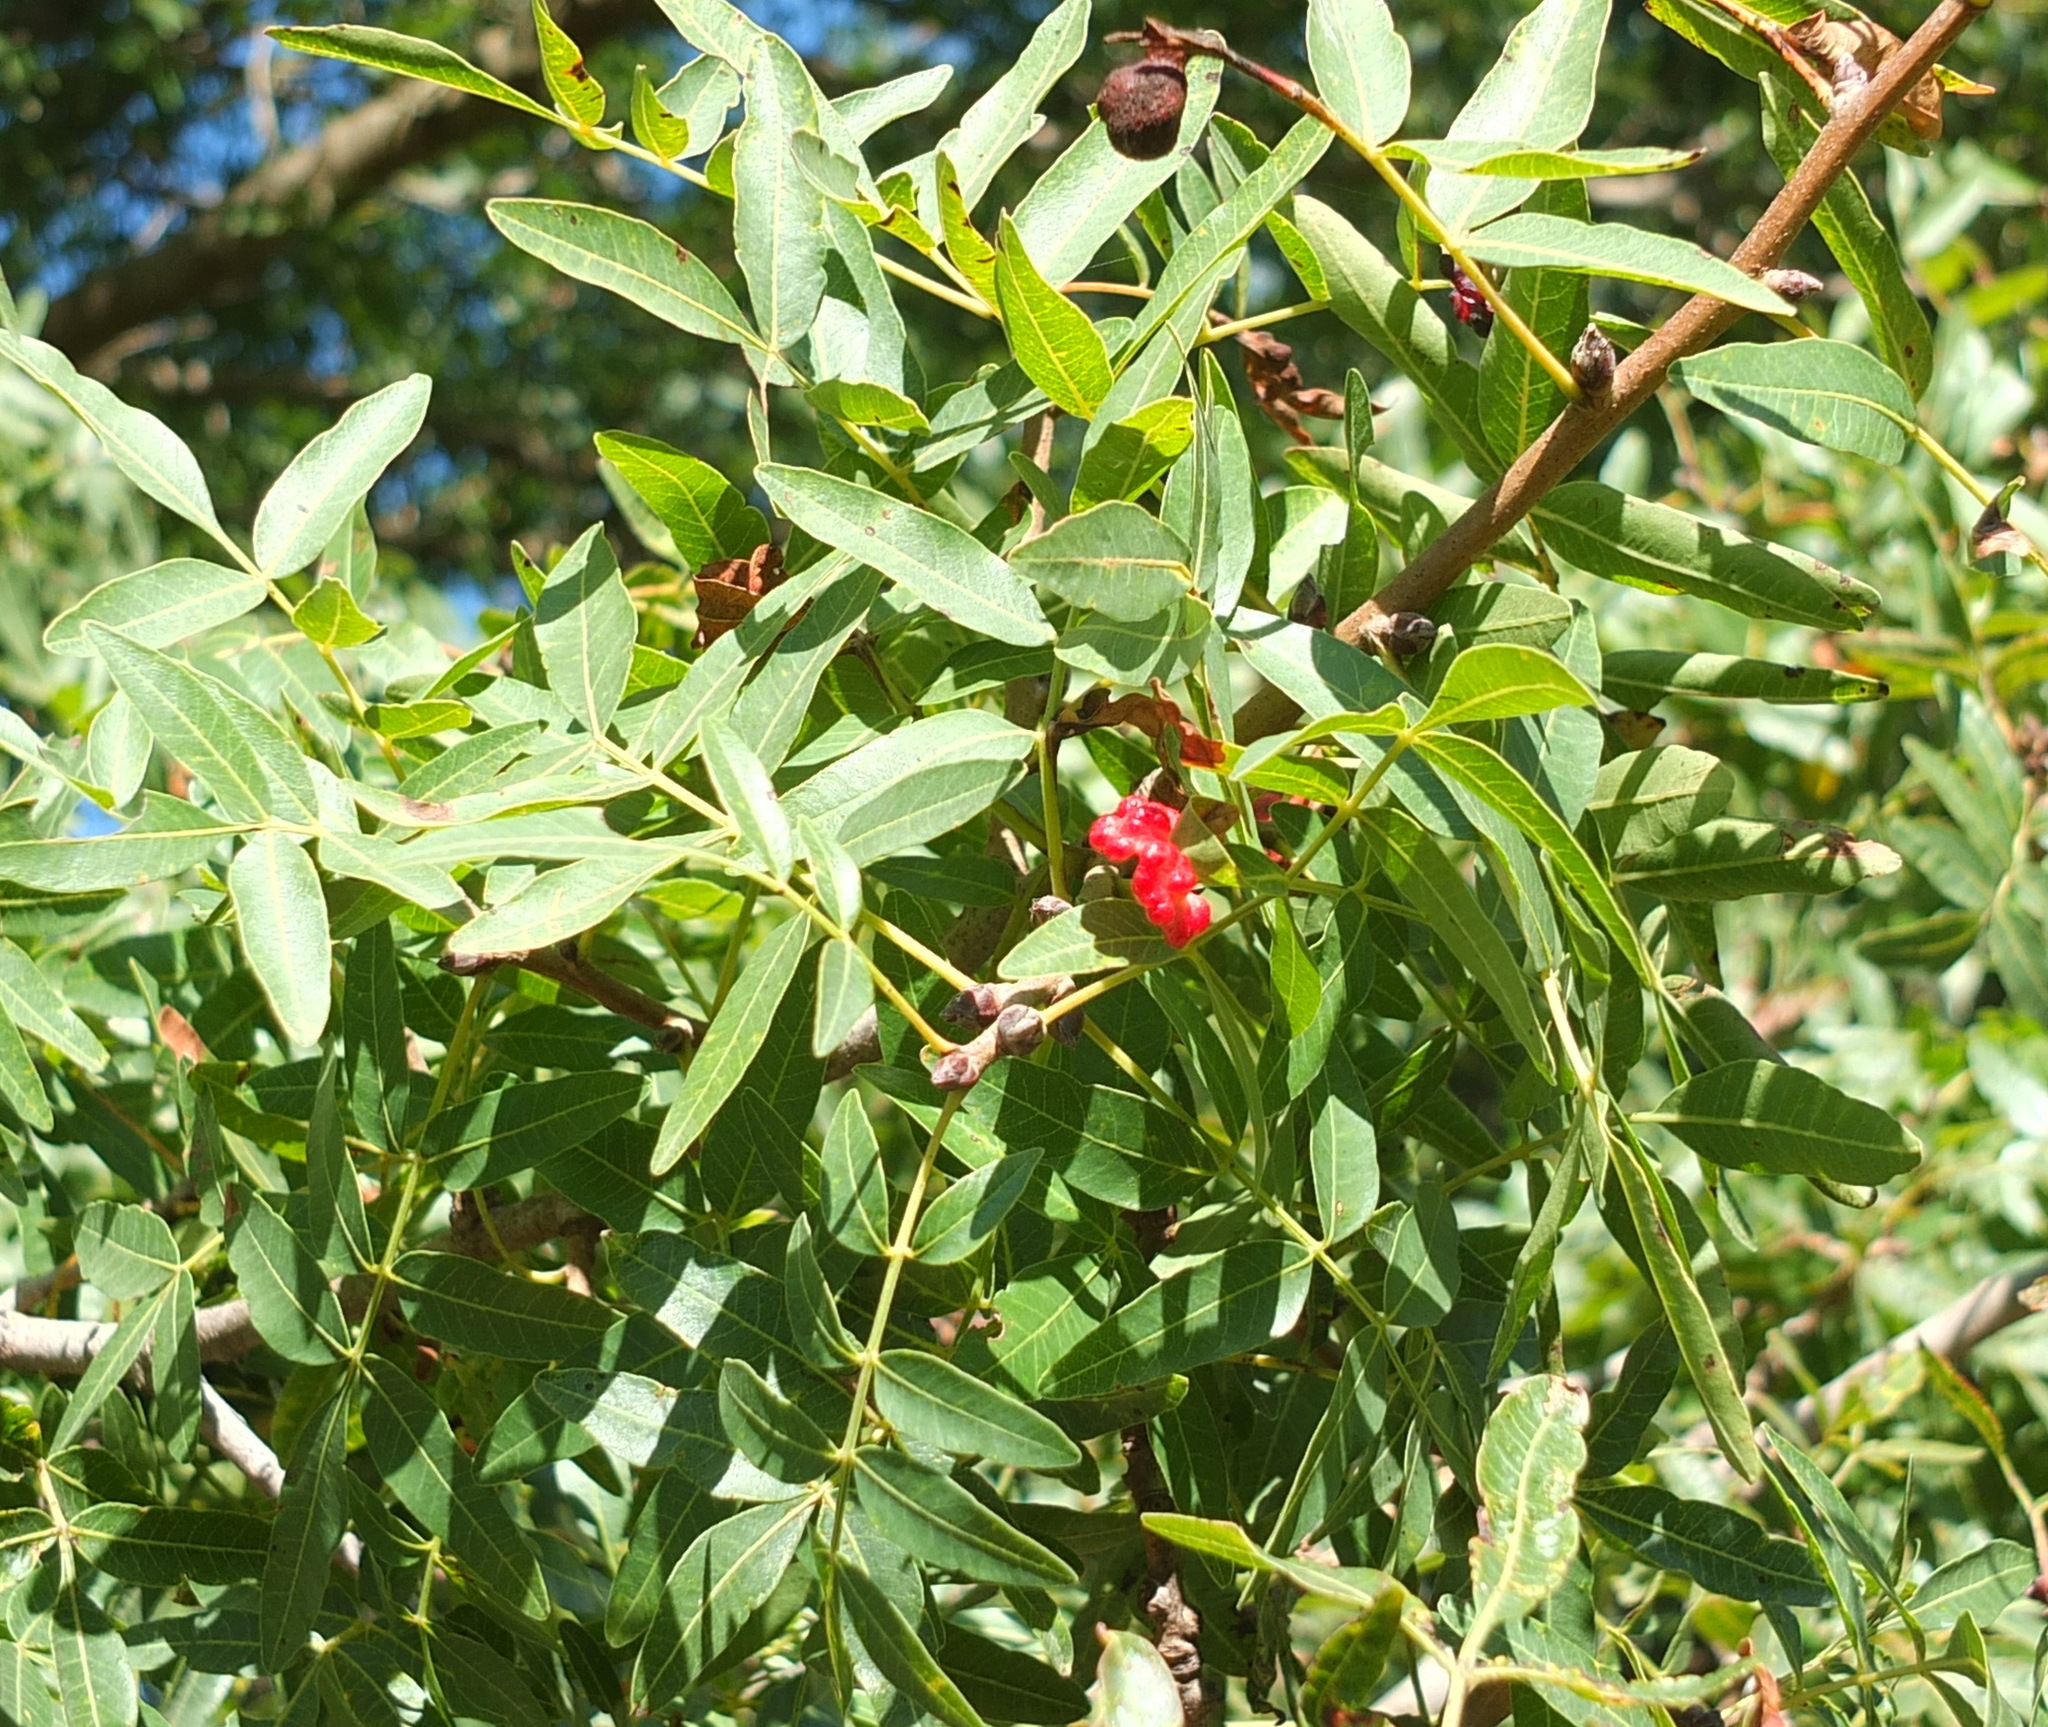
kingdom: Plantae
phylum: Tracheophyta
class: Magnoliopsida
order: Sapindales
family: Anacardiaceae
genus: Pistacia
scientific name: Pistacia terebinthus
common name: Terebinth
